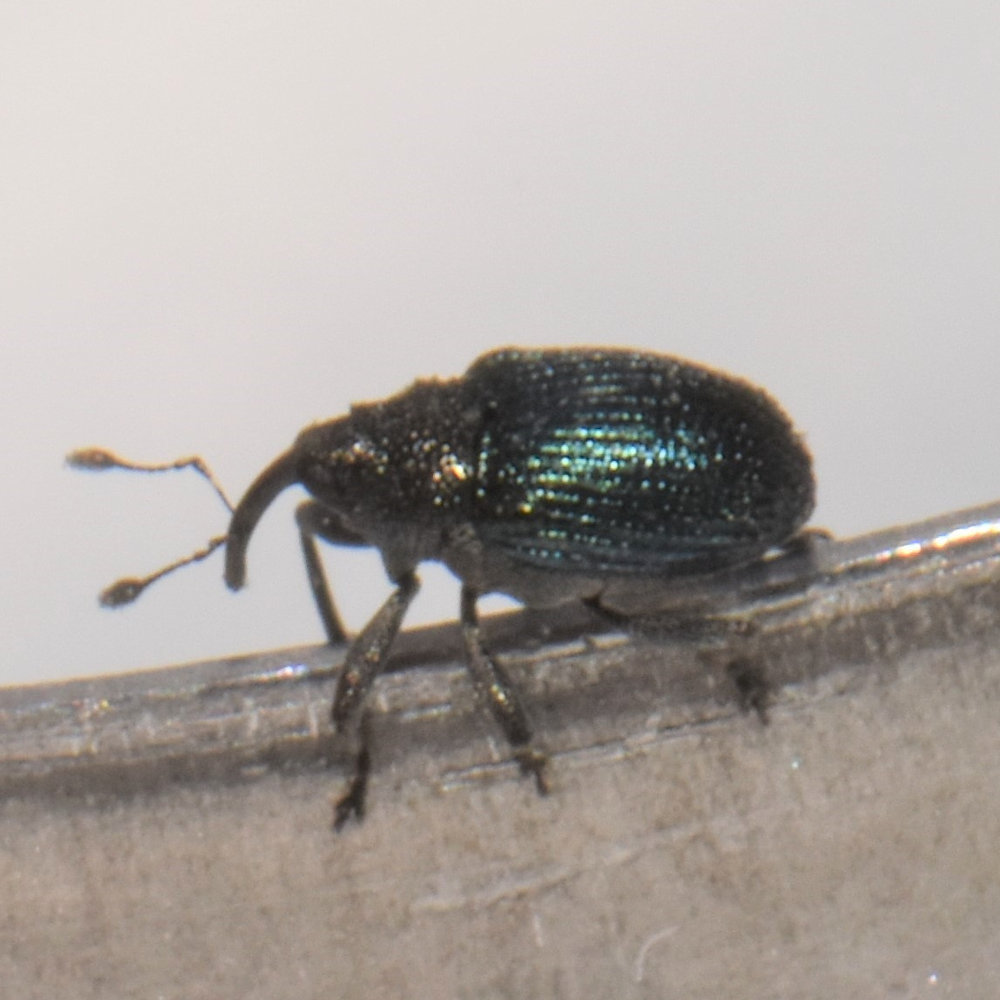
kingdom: Animalia
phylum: Arthropoda
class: Insecta
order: Coleoptera
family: Curculionidae
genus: Ceutorhynchus
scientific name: Ceutorhynchus erysimi
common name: Weevil
